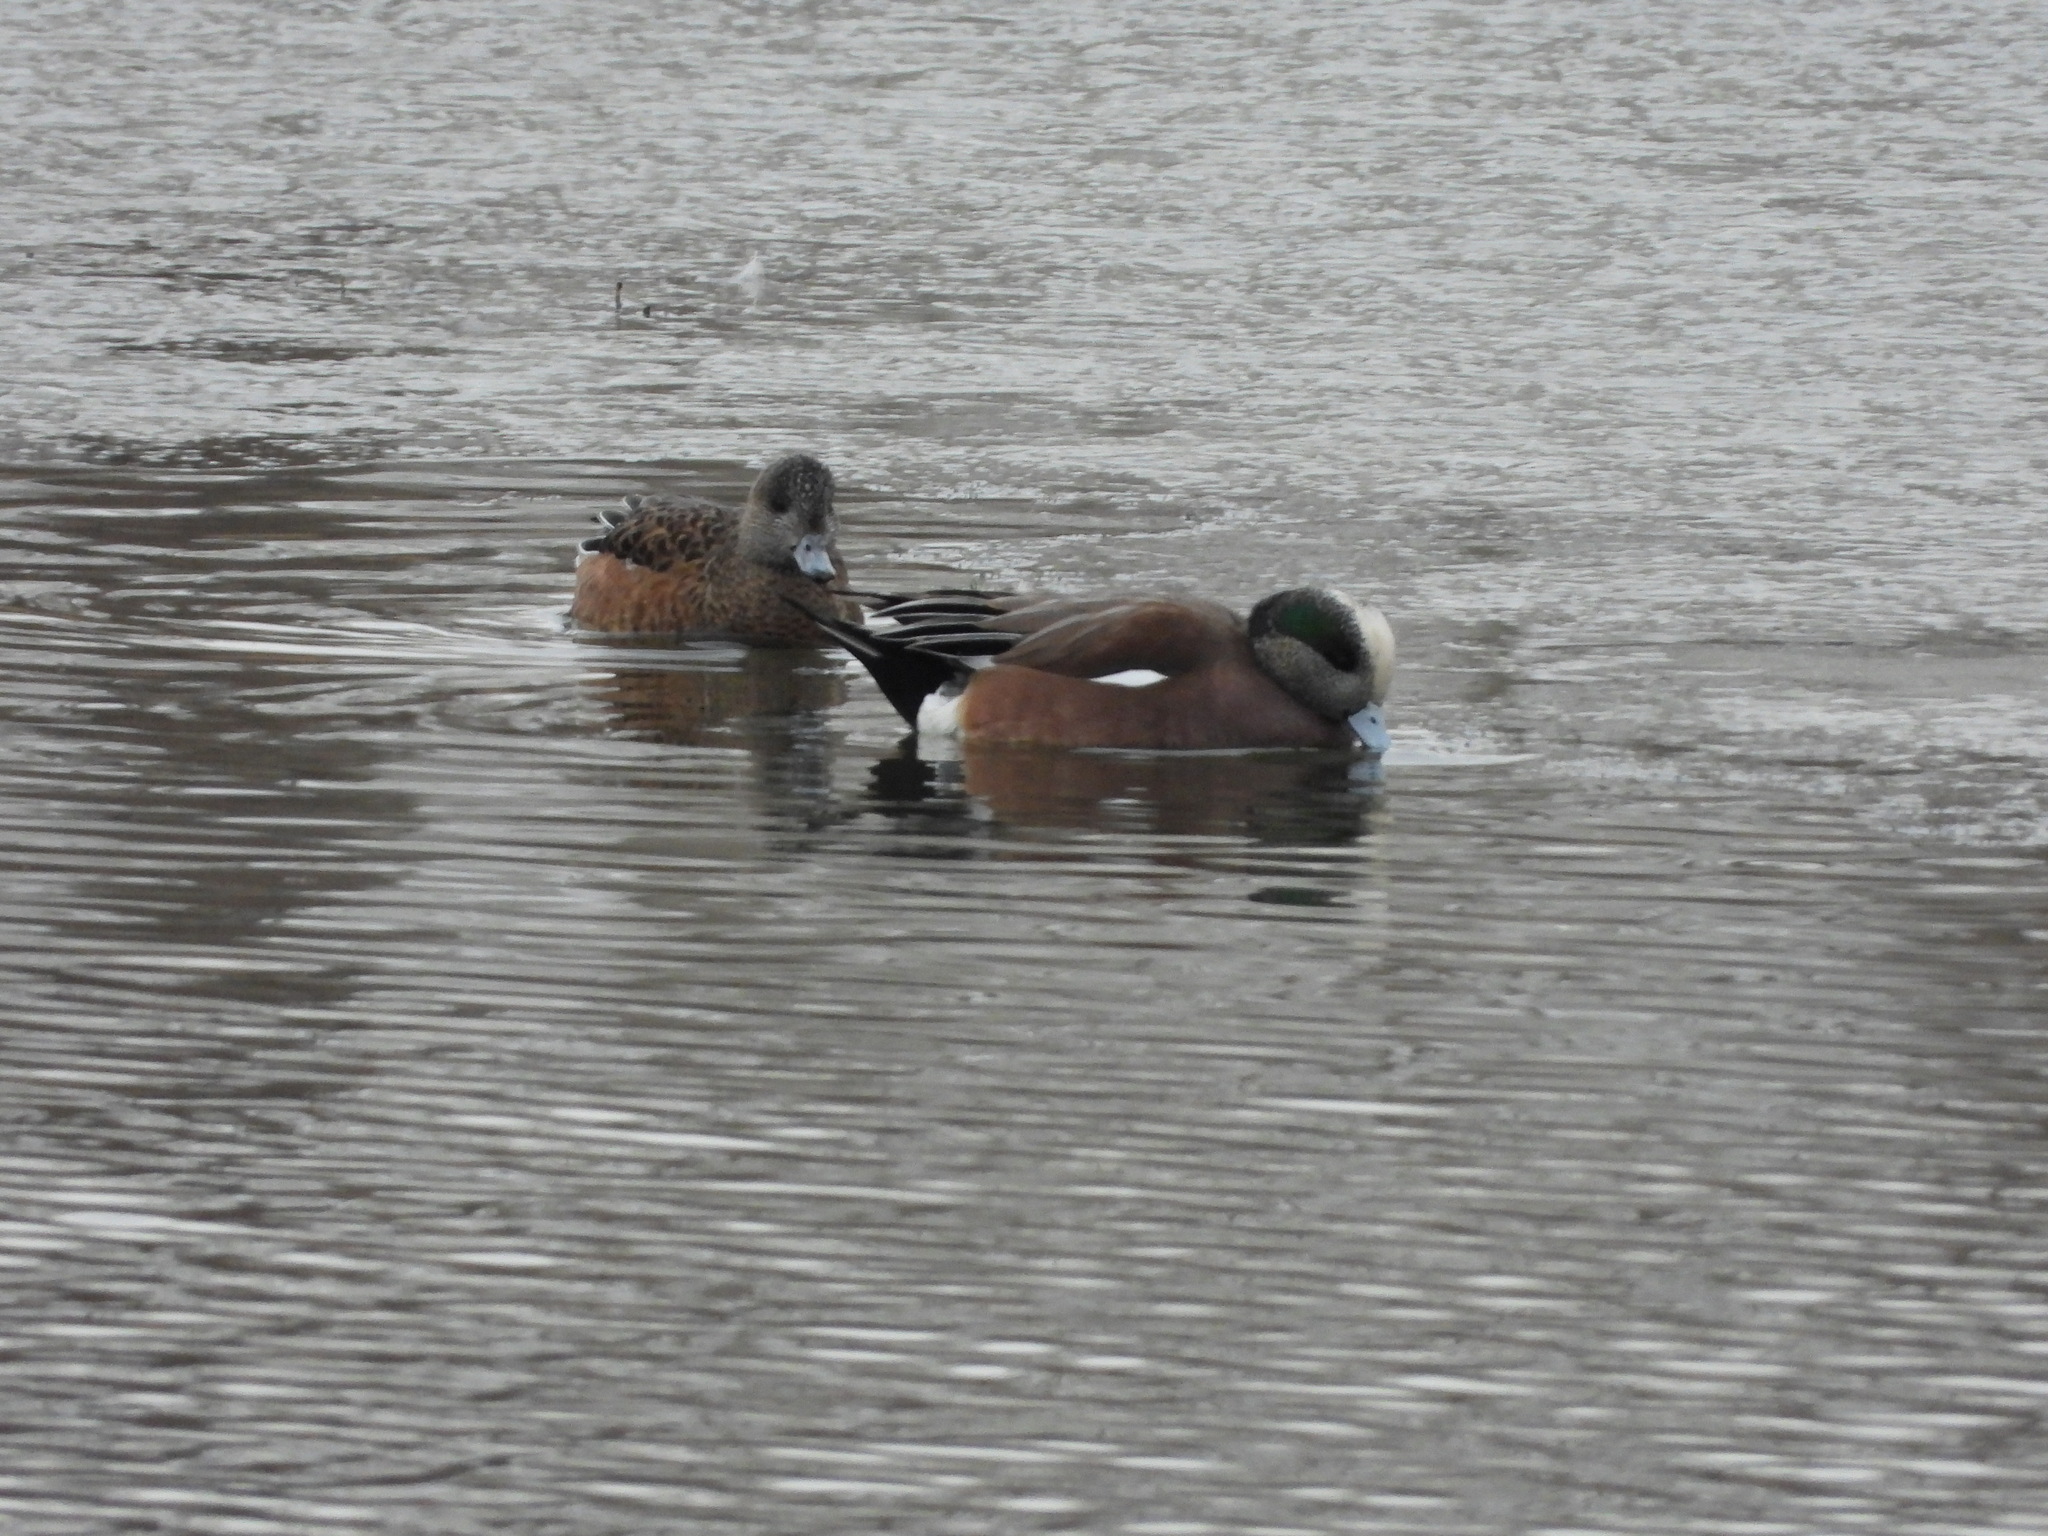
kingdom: Animalia
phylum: Chordata
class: Aves
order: Anseriformes
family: Anatidae
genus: Mareca
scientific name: Mareca americana
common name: American wigeon
